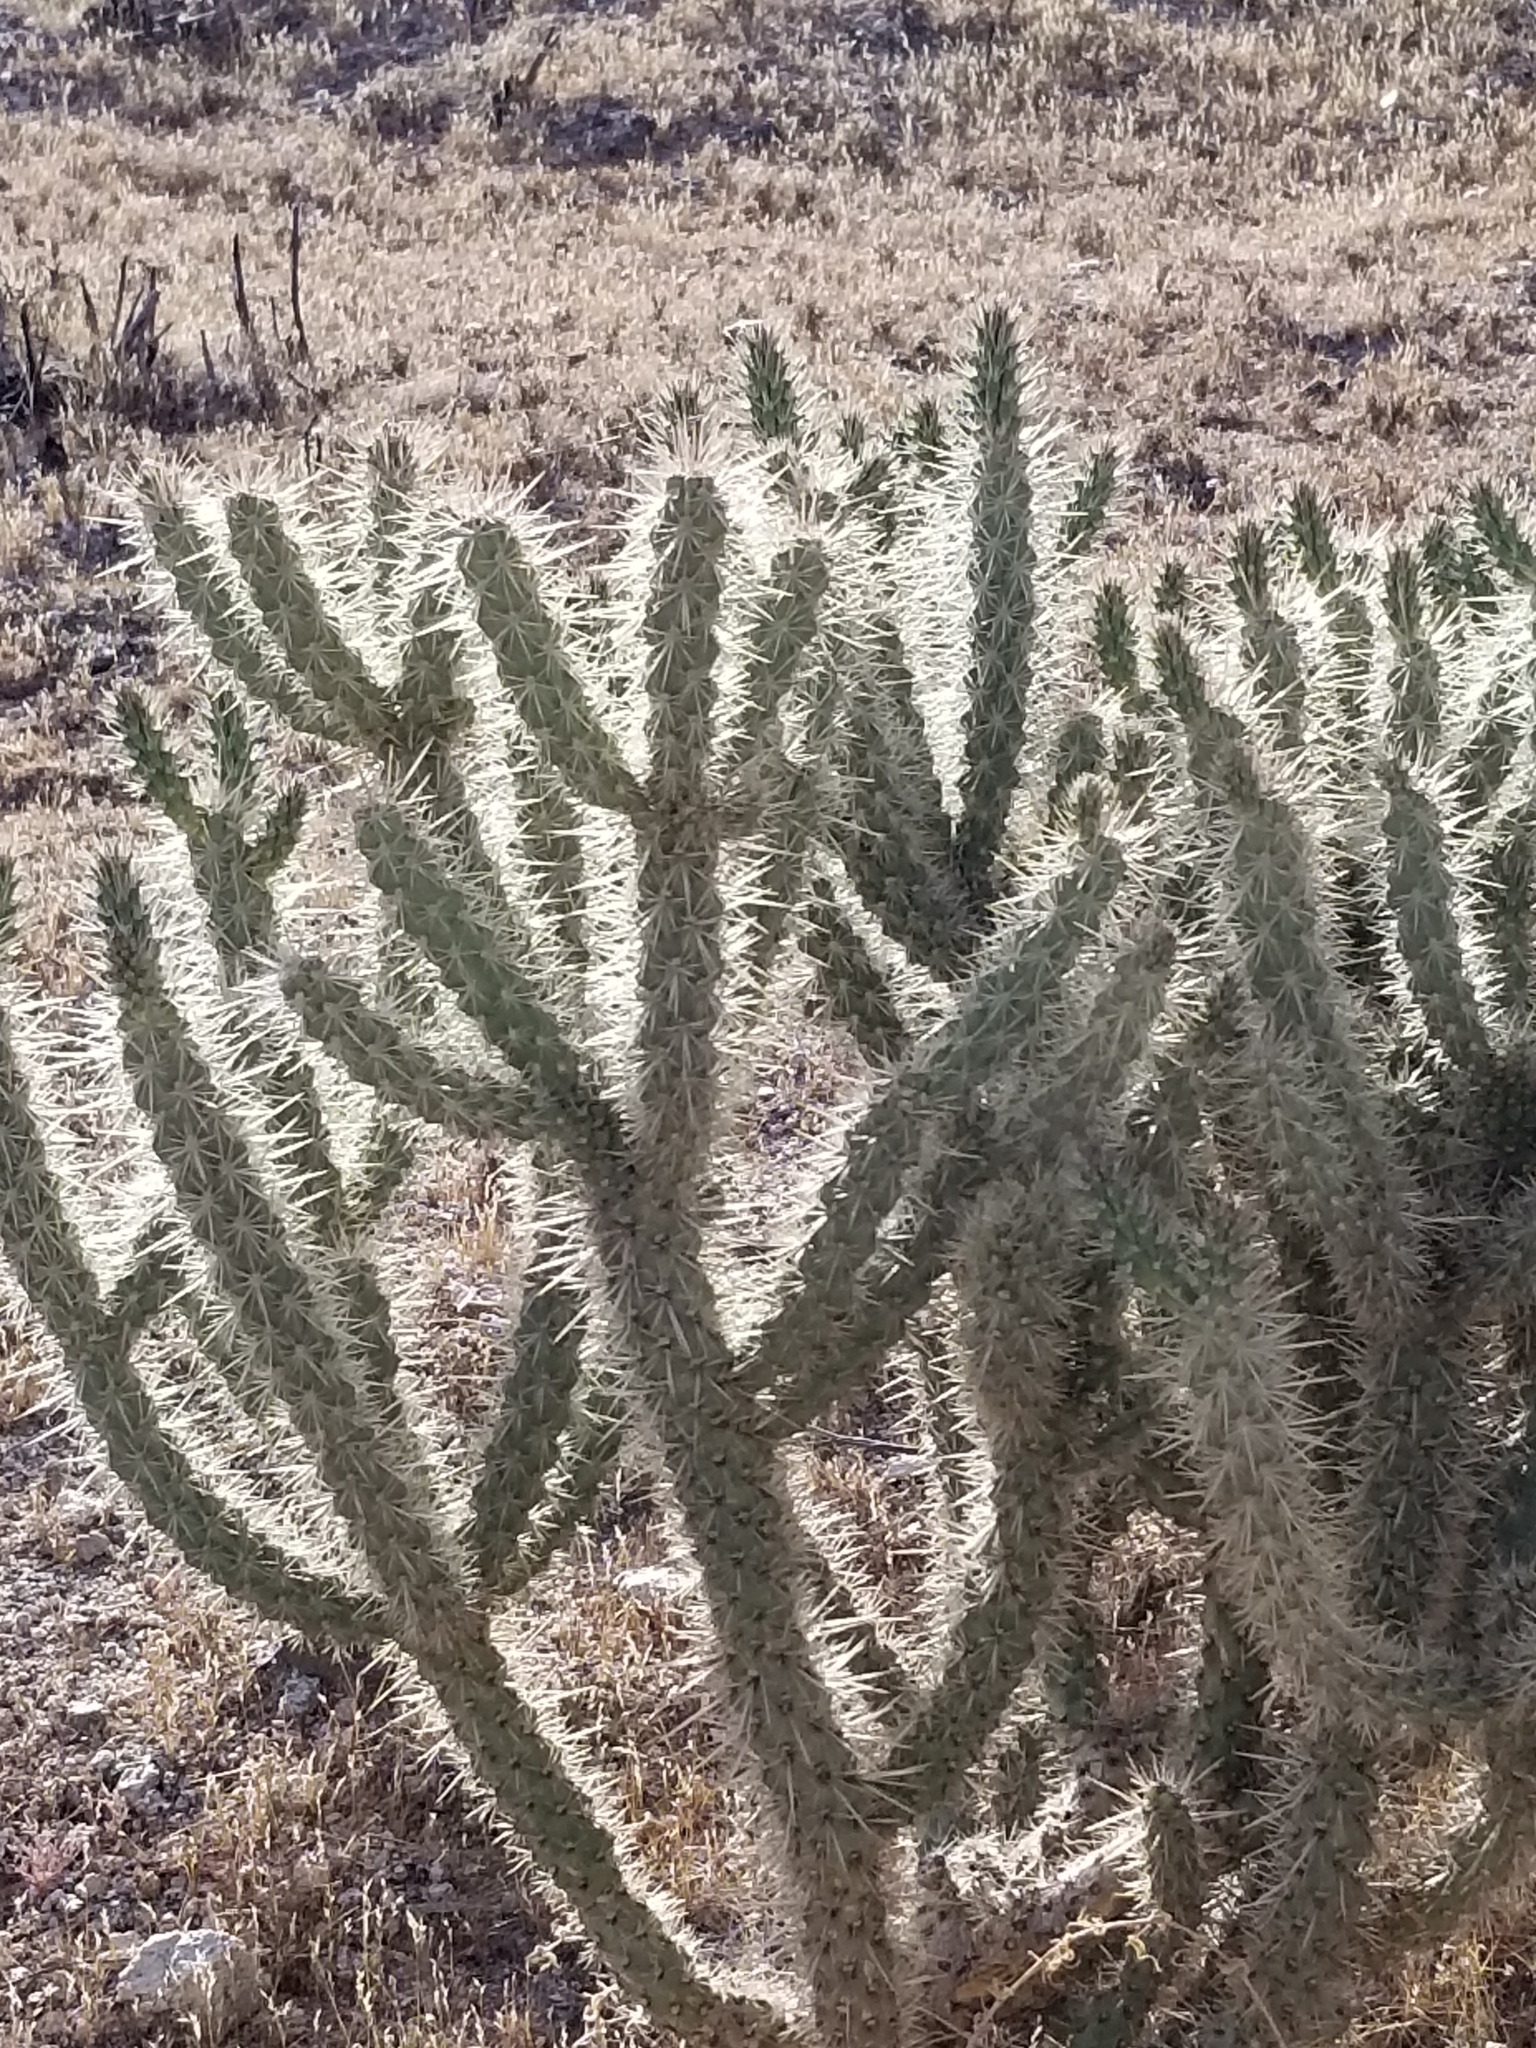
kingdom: Plantae
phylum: Tracheophyta
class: Magnoliopsida
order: Caryophyllales
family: Cactaceae
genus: Cylindropuntia
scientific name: Cylindropuntia ganderi
